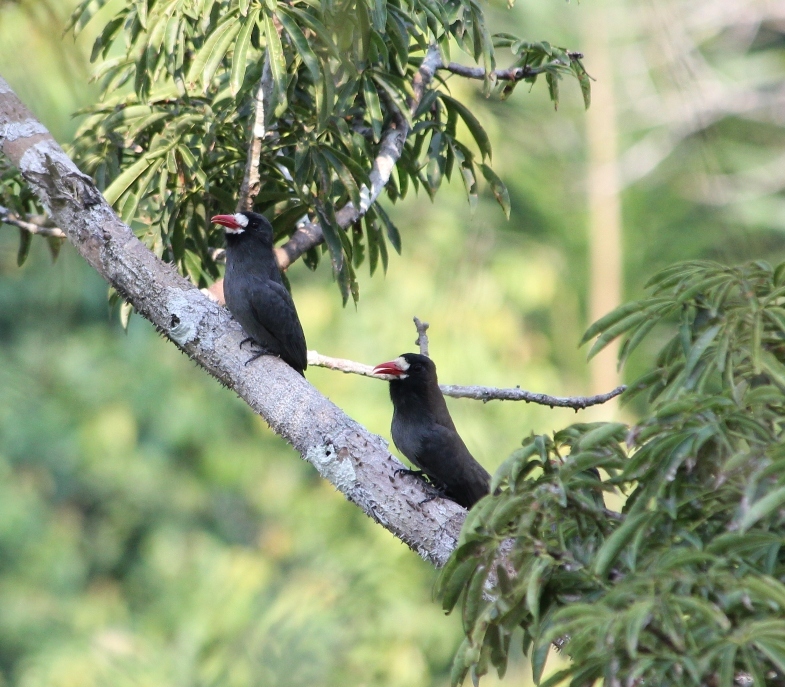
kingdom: Animalia
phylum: Chordata
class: Aves
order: Piciformes
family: Bucconidae
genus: Monasa
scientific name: Monasa morphoeus
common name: White-fronted nunbird
